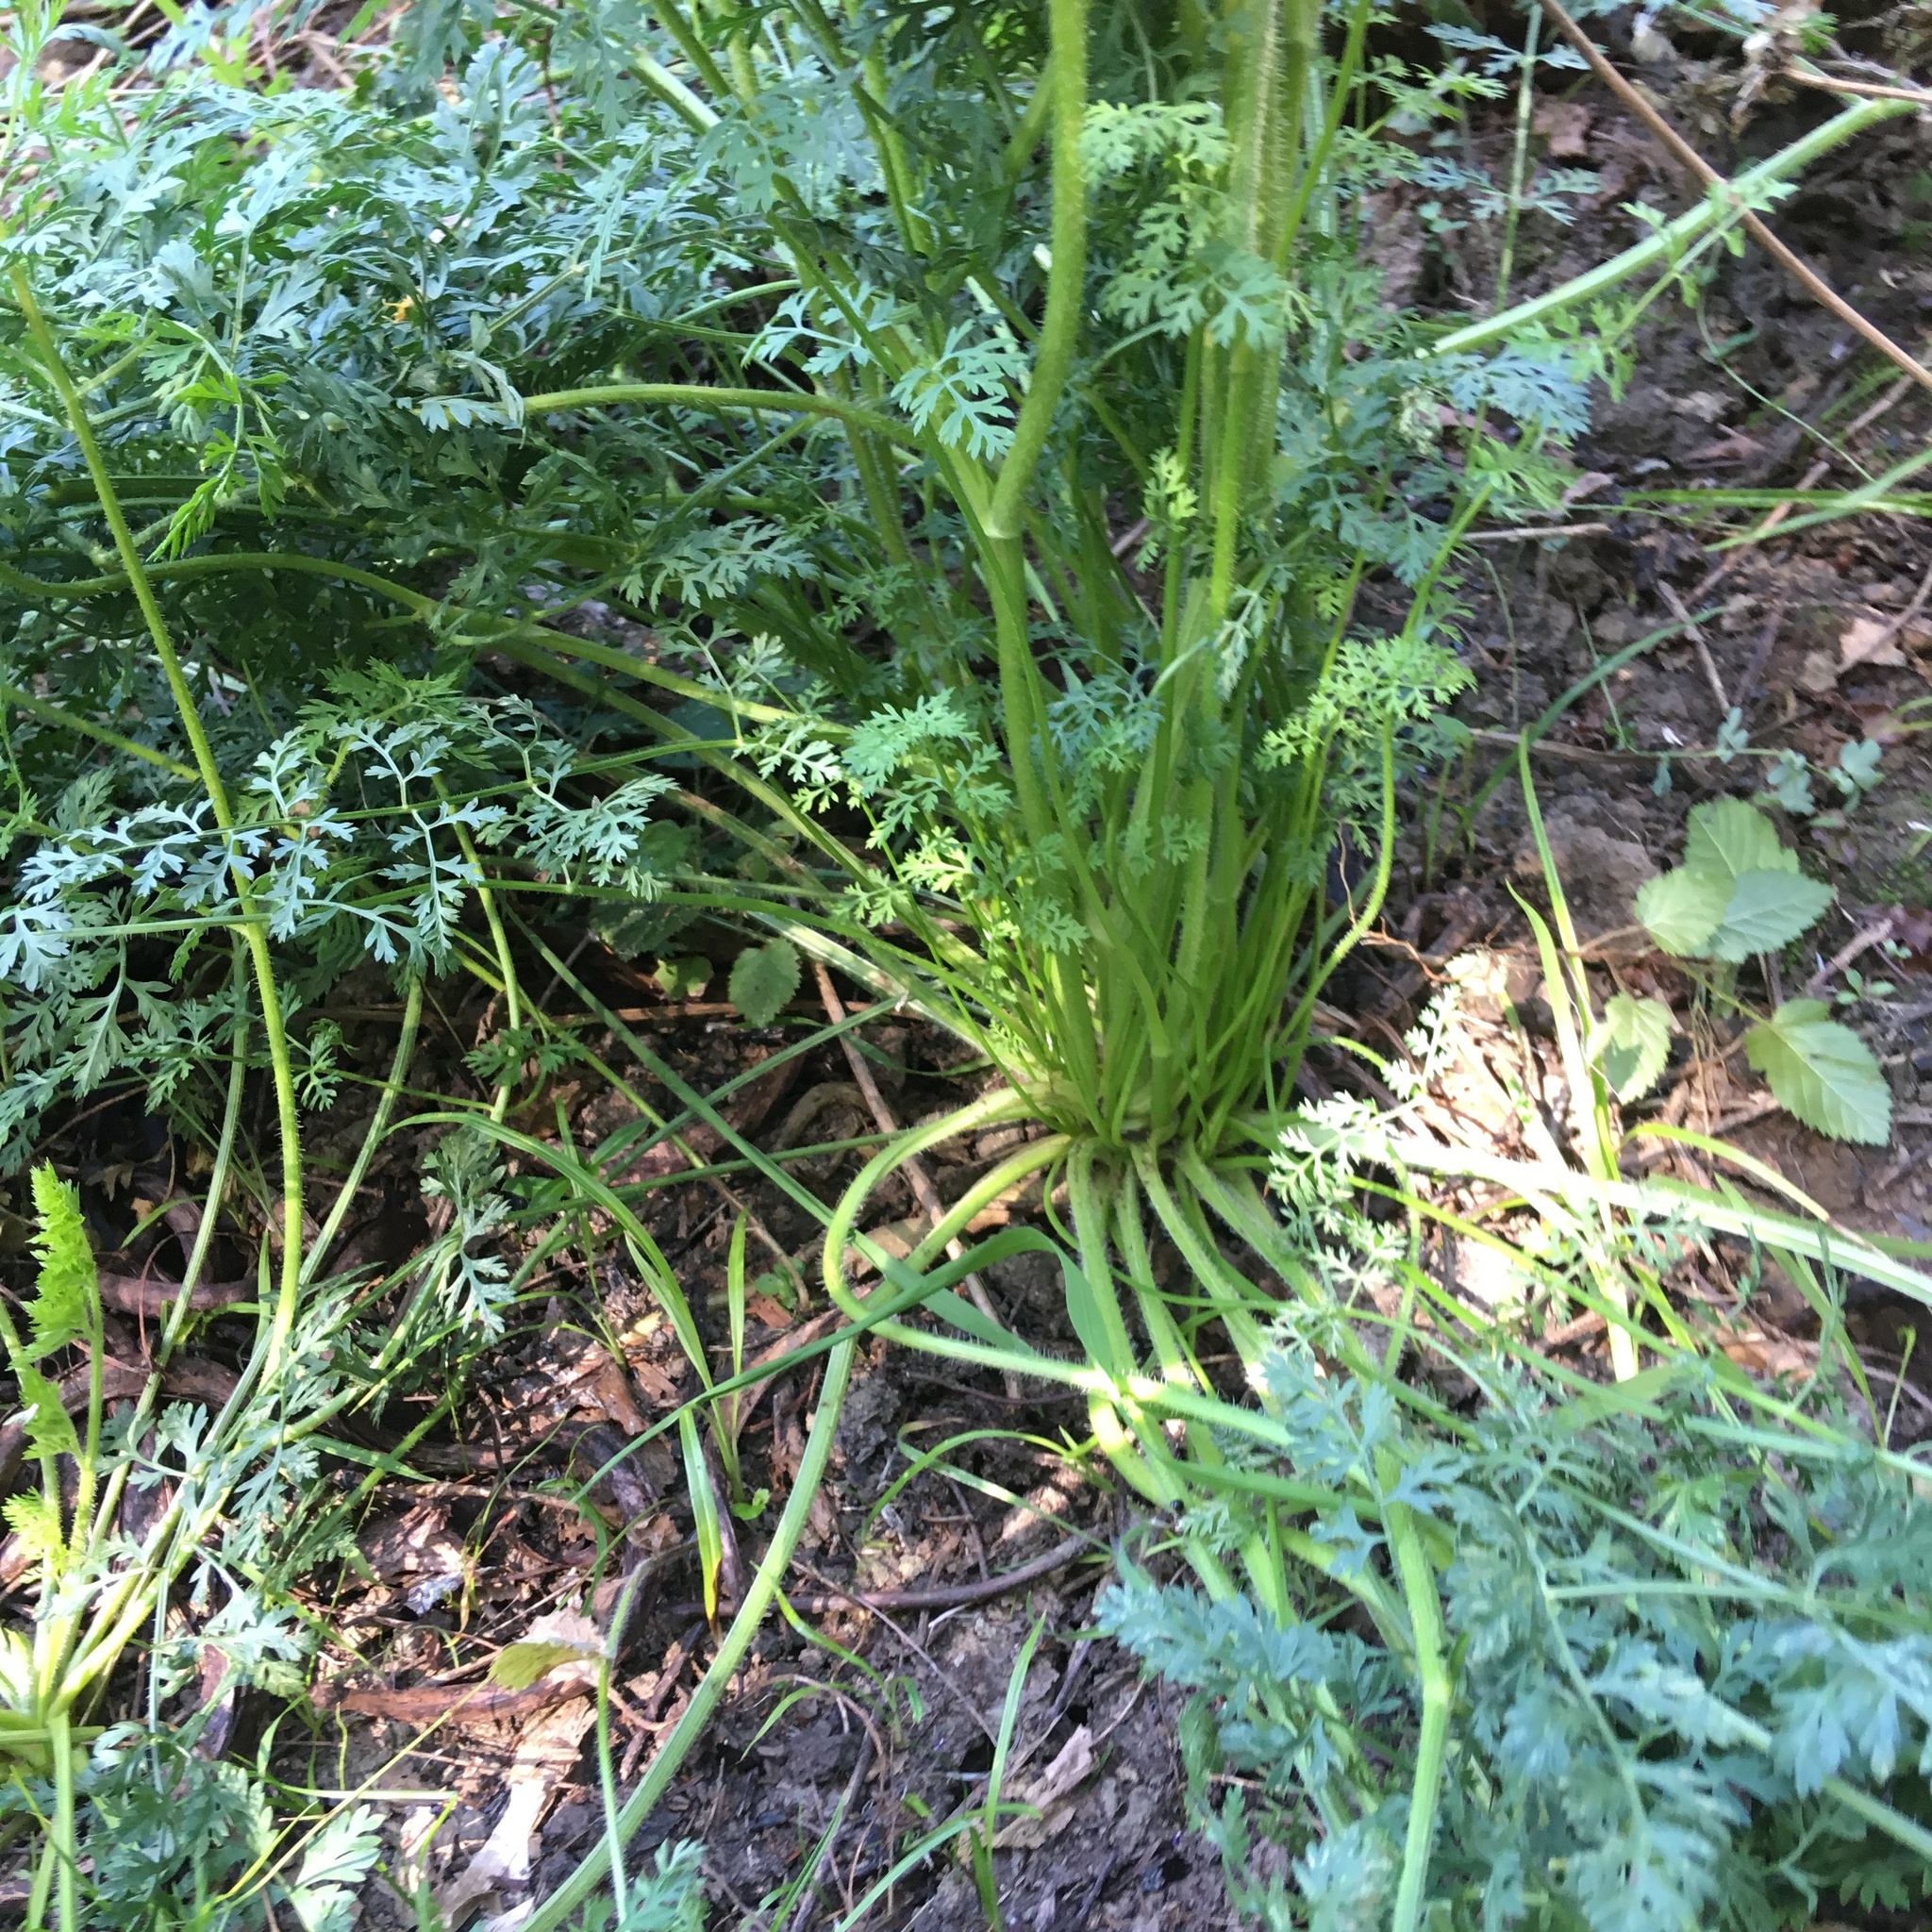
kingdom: Plantae
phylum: Tracheophyta
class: Magnoliopsida
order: Apiales
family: Apiaceae
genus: Daucus
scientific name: Daucus carota
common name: Wild carrot
